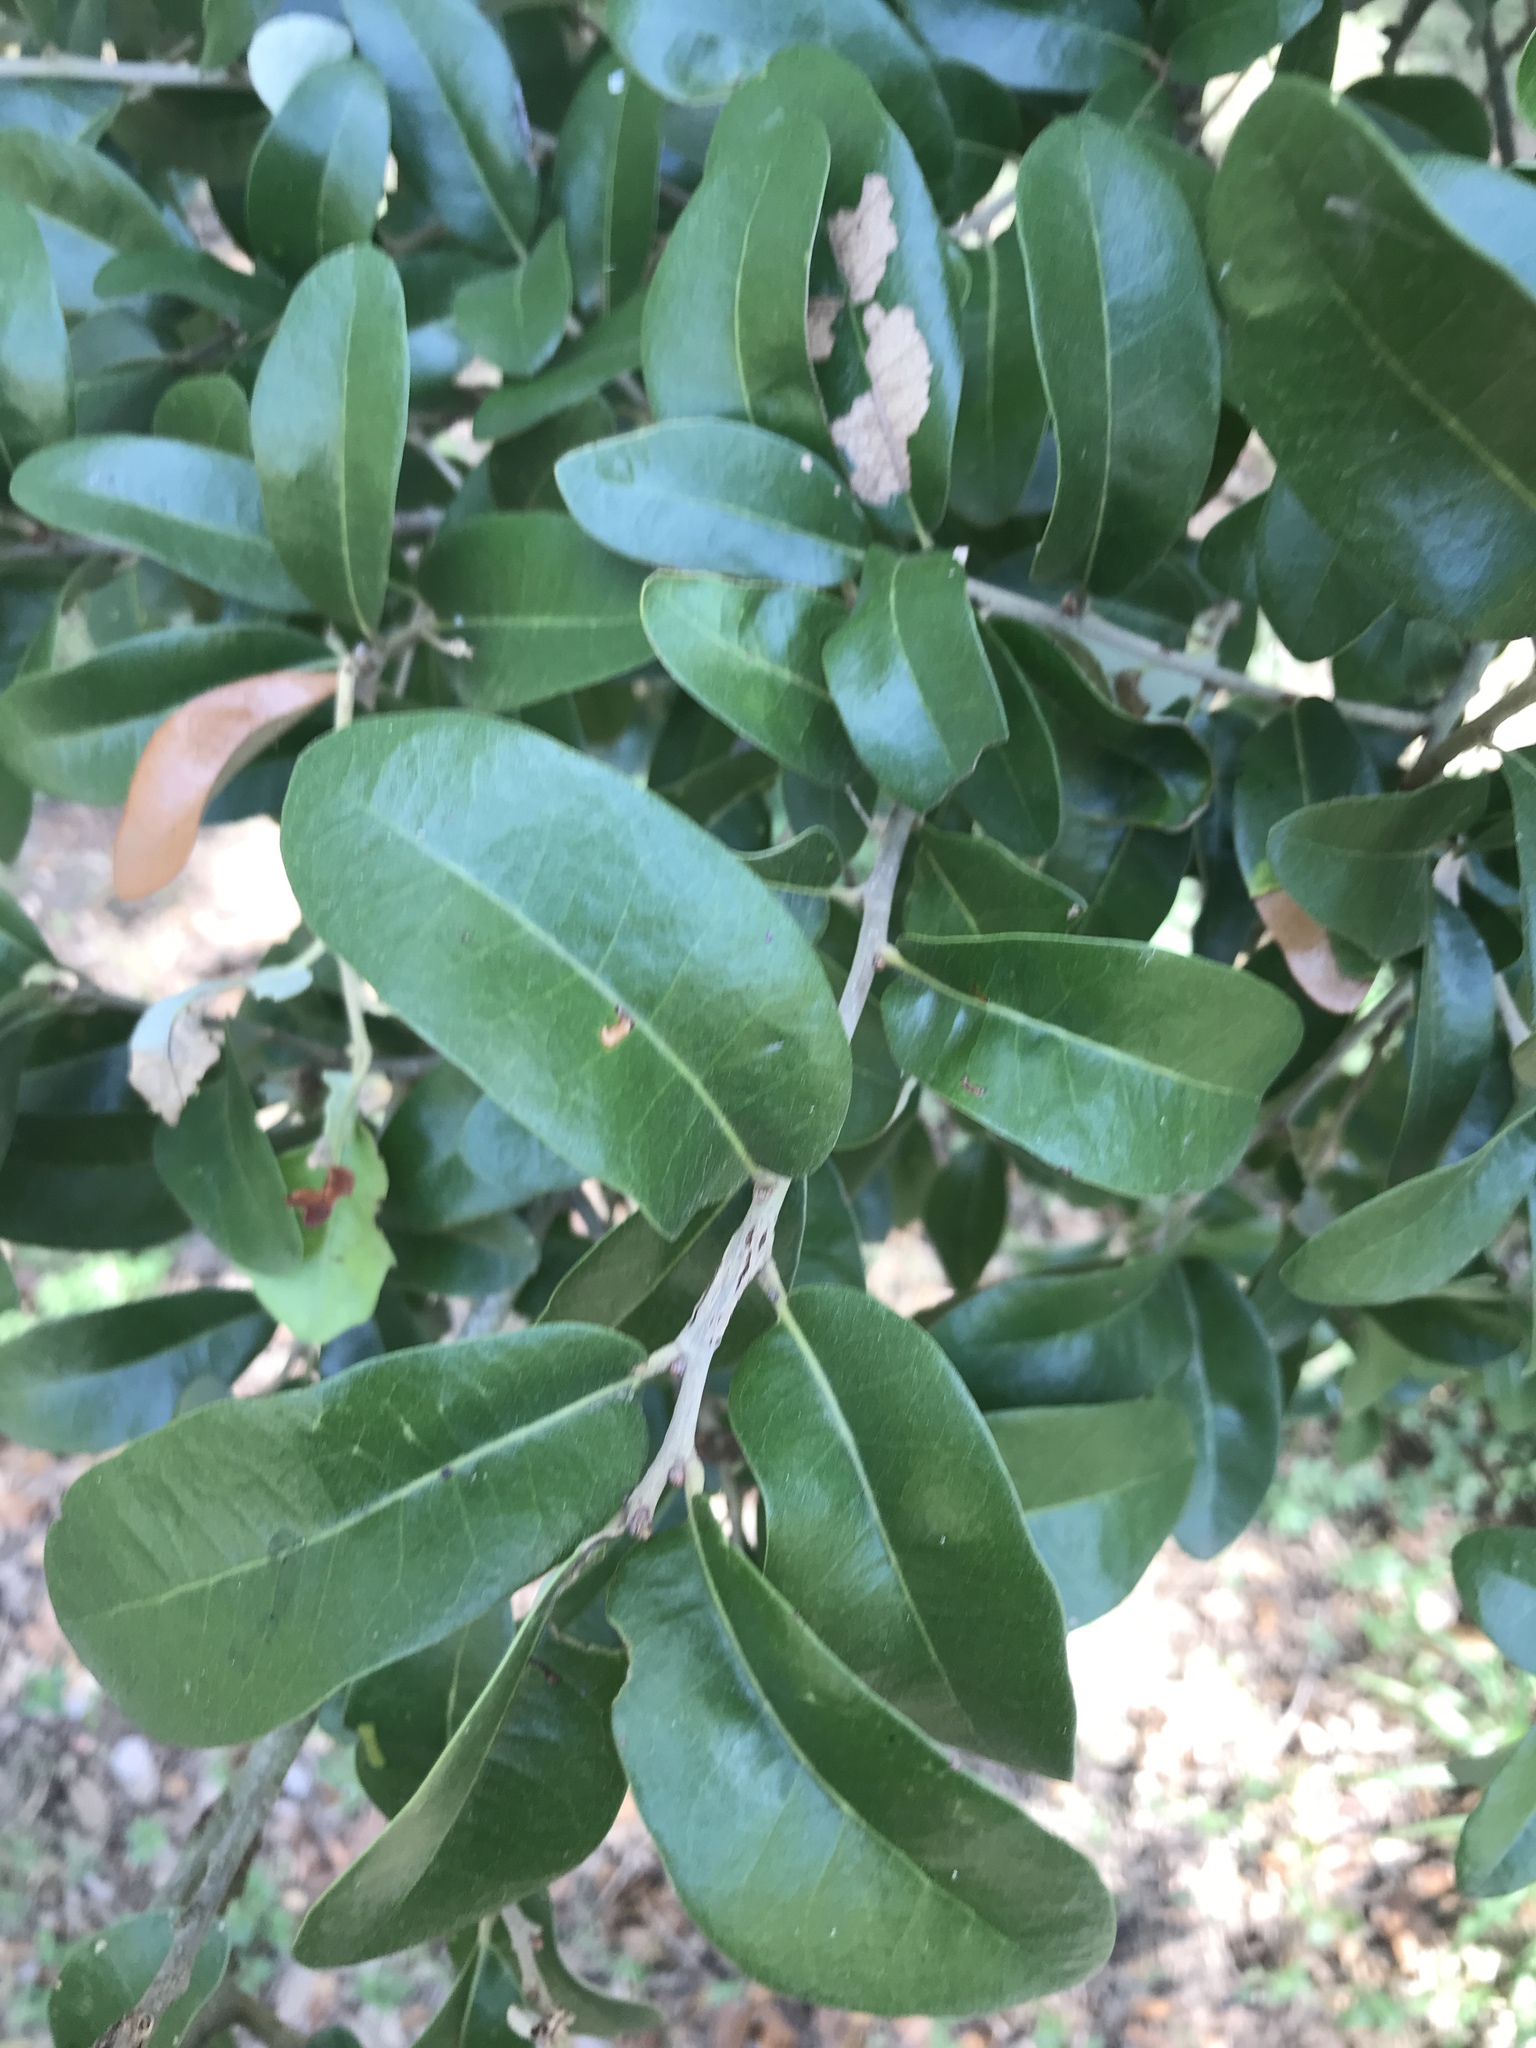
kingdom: Plantae
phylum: Tracheophyta
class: Magnoliopsida
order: Fagales
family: Fagaceae
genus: Quercus
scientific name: Quercus fusiformis
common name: Texas live oak
